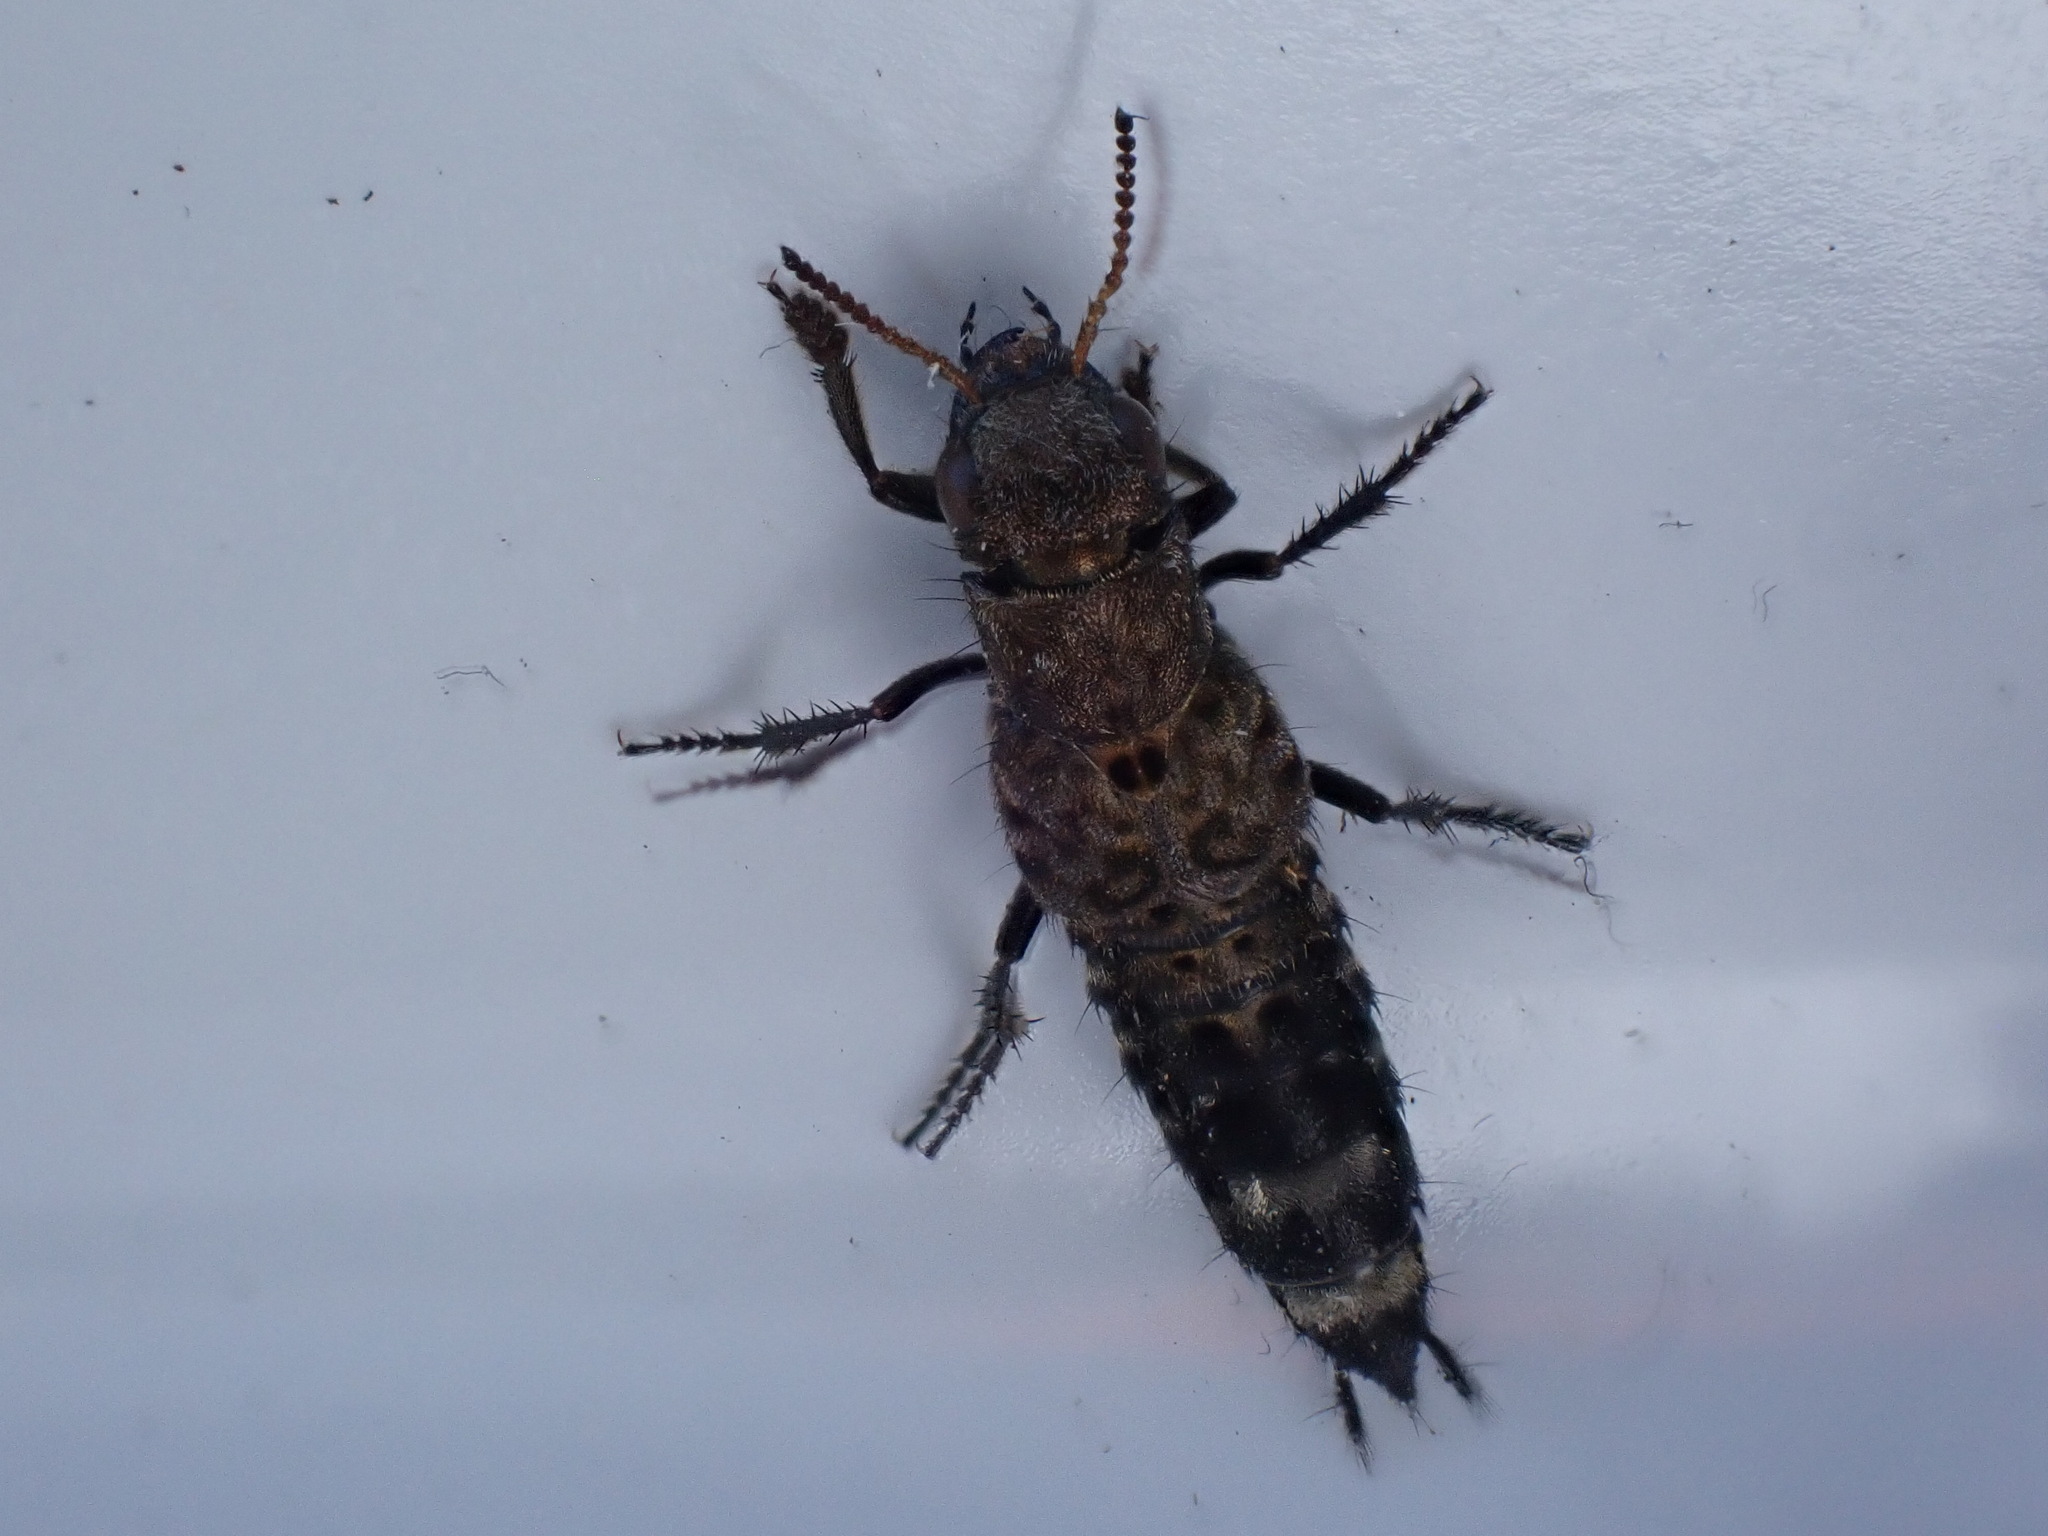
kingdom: Animalia
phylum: Arthropoda
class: Insecta
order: Coleoptera
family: Staphylinidae
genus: Ontholestes
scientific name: Ontholestes murinus
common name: Staph beetle
